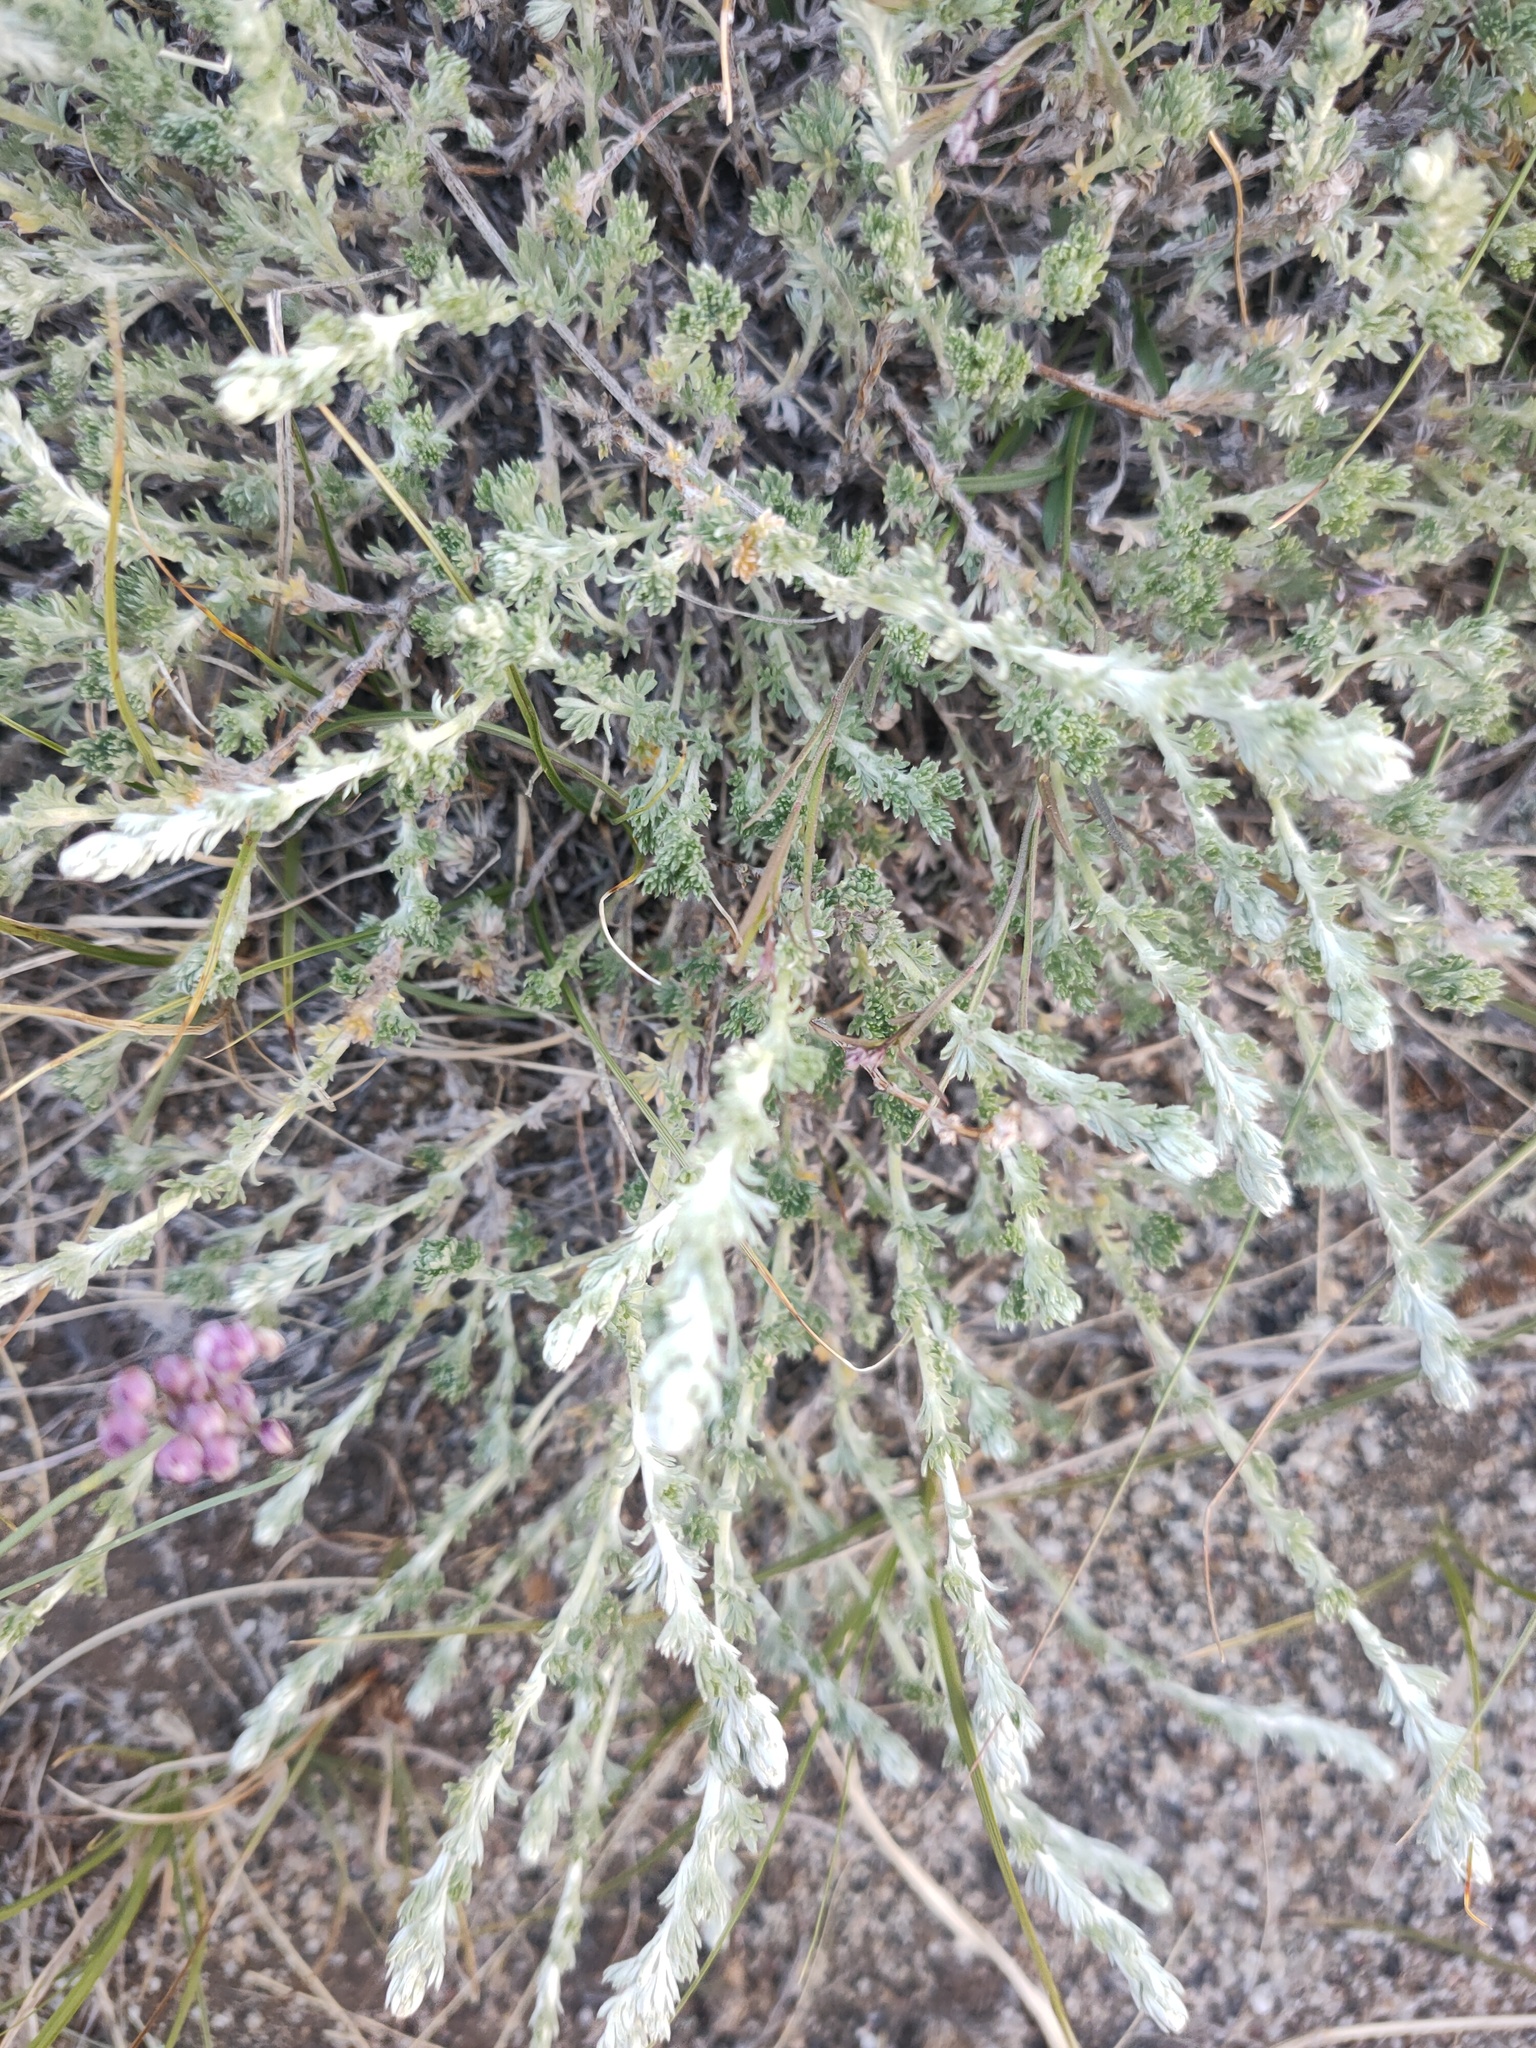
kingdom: Plantae
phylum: Tracheophyta
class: Magnoliopsida
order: Asterales
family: Asteraceae
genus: Artemisia
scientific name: Artemisia frigida
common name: Prairie sagewort
